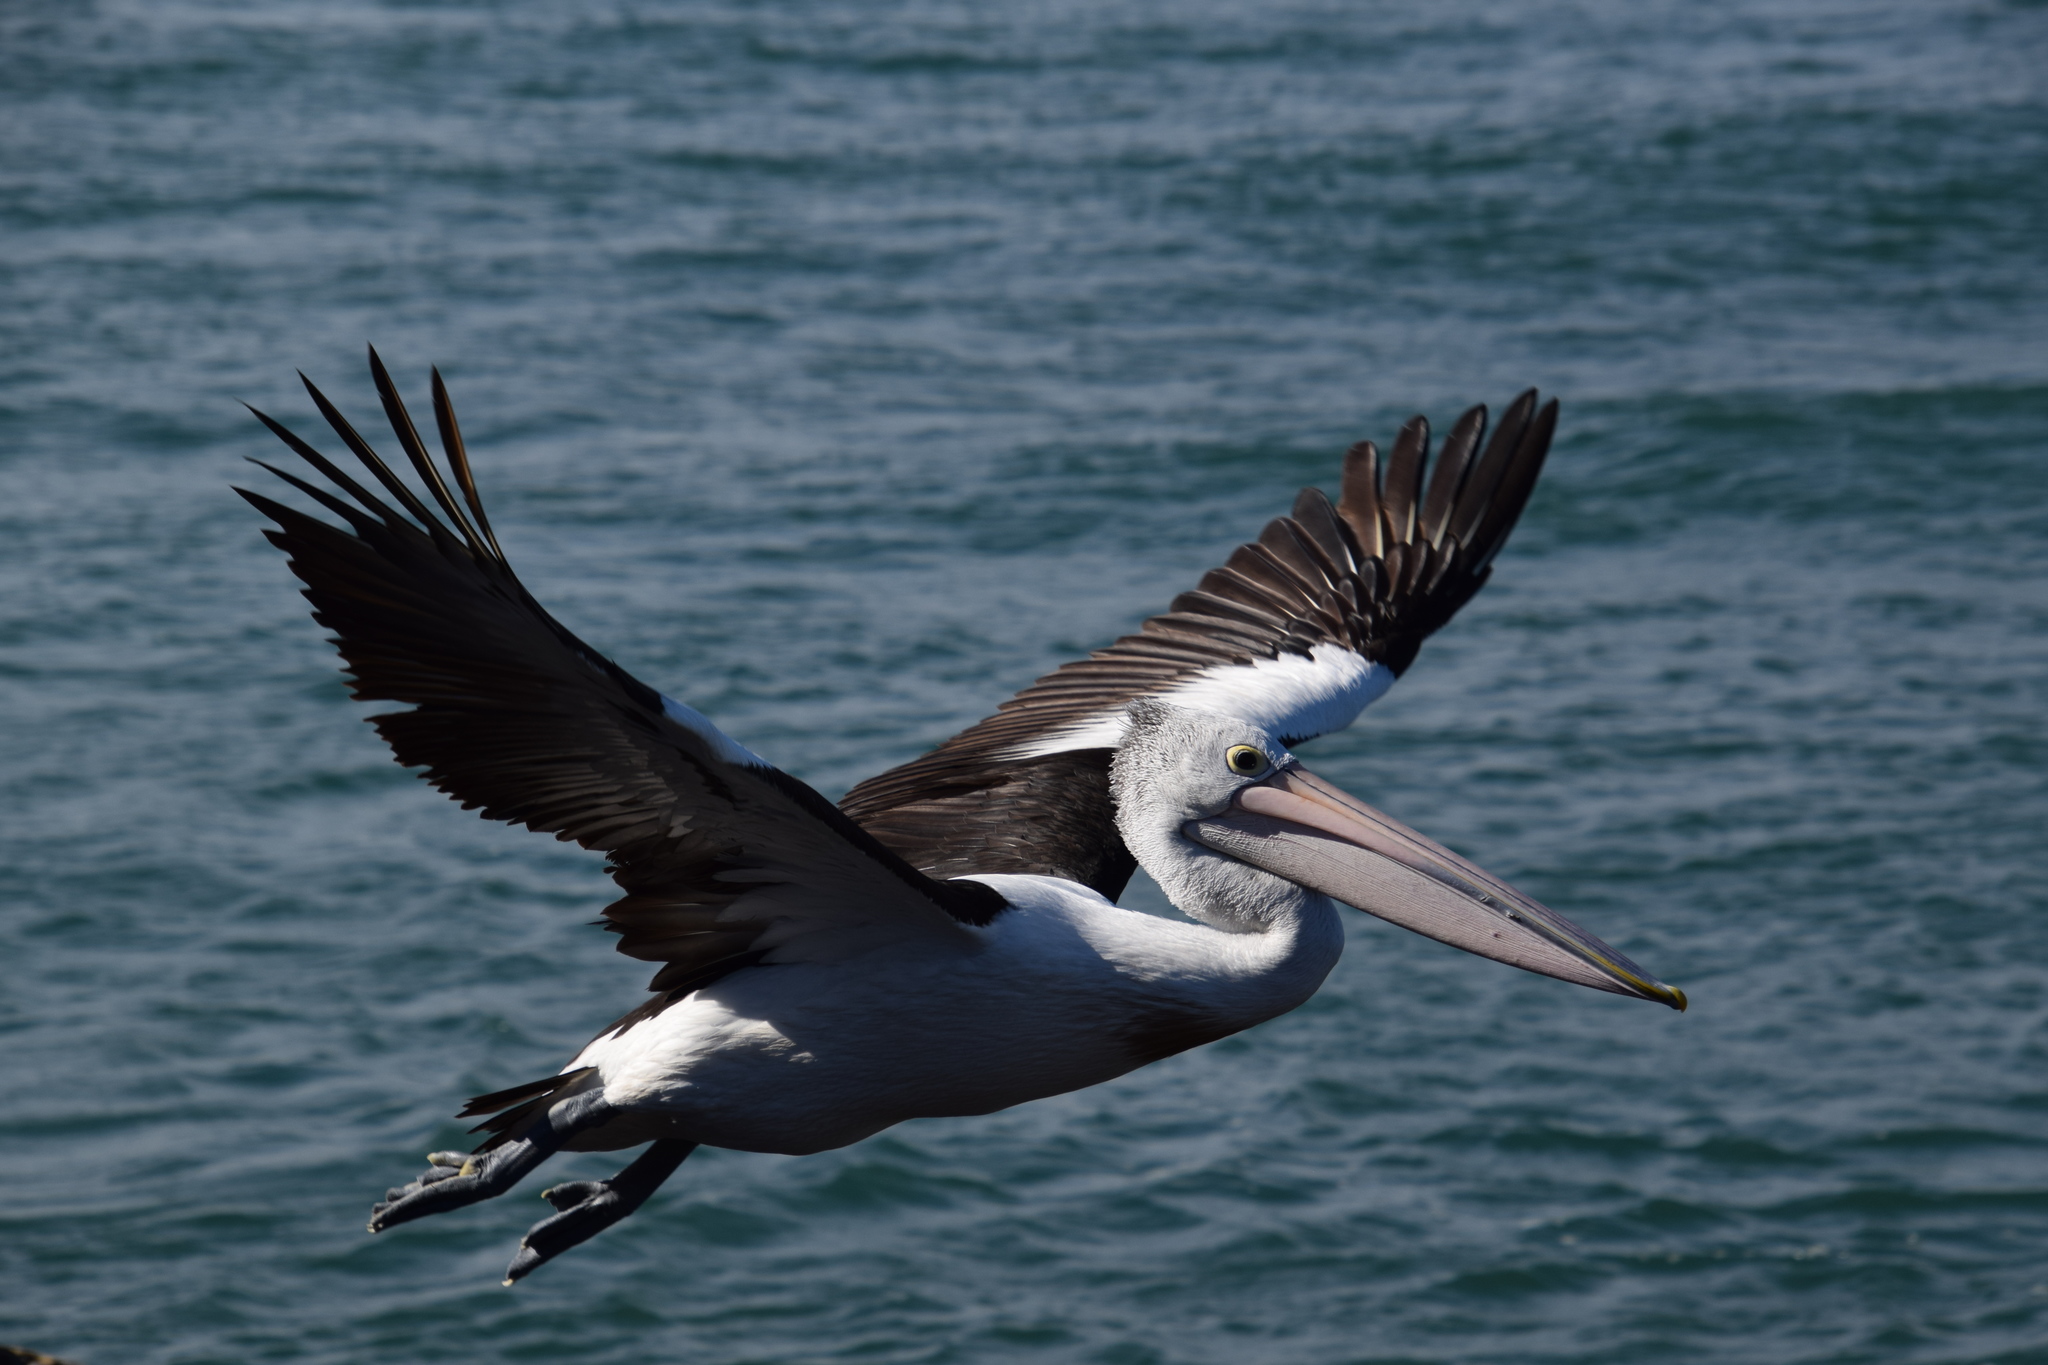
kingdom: Animalia
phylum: Chordata
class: Aves
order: Pelecaniformes
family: Pelecanidae
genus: Pelecanus
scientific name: Pelecanus conspicillatus
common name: Australian pelican
